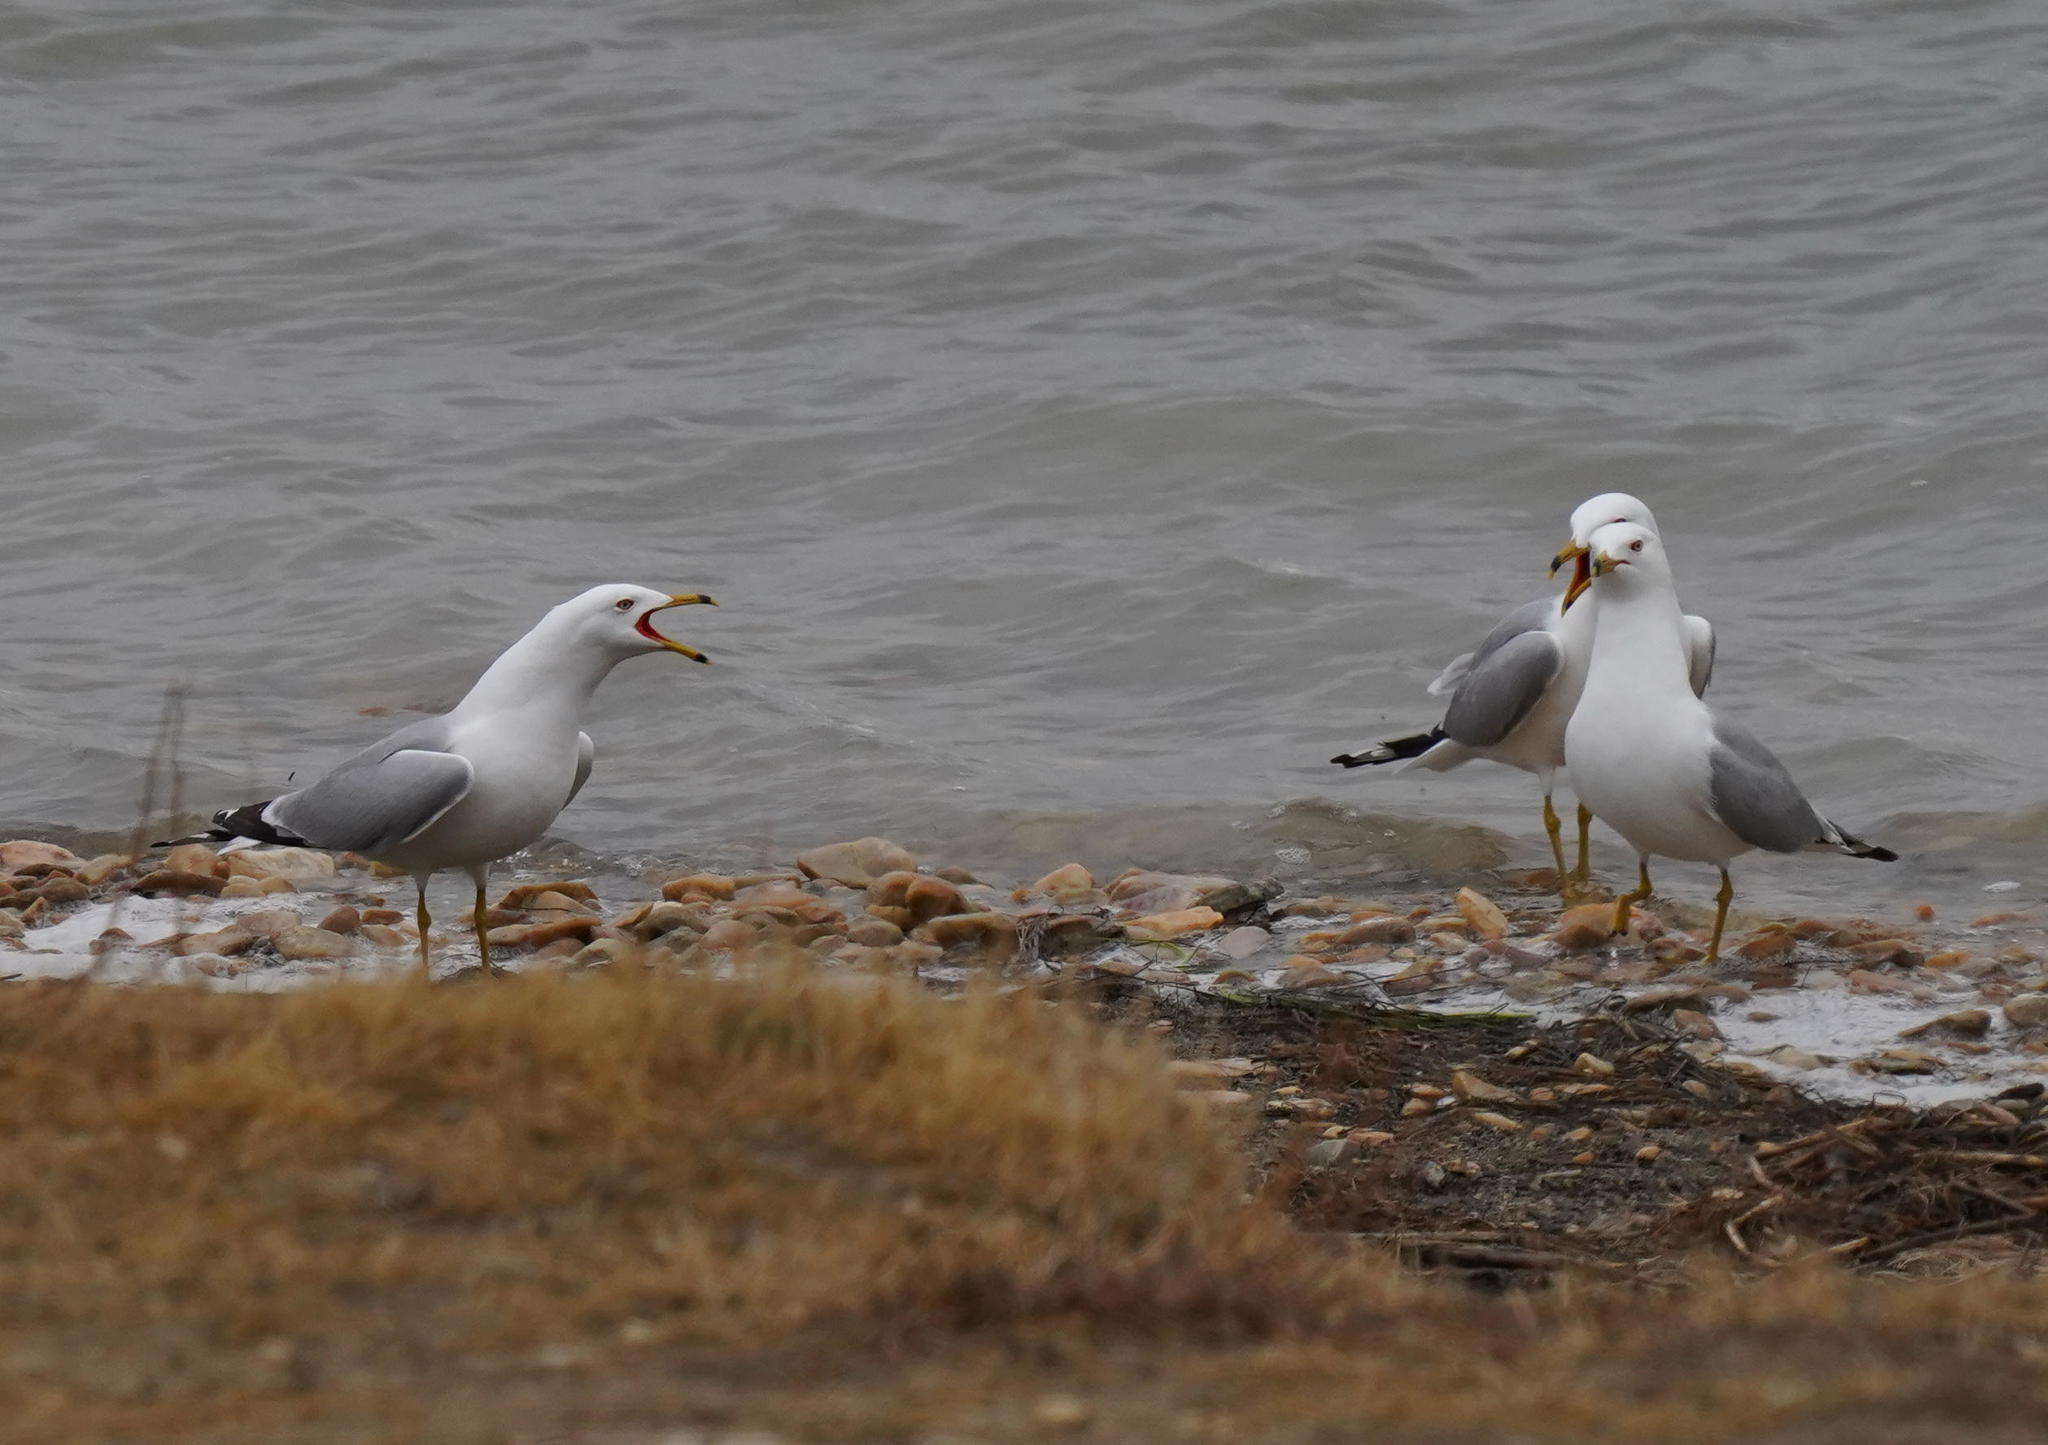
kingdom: Animalia
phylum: Chordata
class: Aves
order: Charadriiformes
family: Laridae
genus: Larus
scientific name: Larus delawarensis
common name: Ring-billed gull
